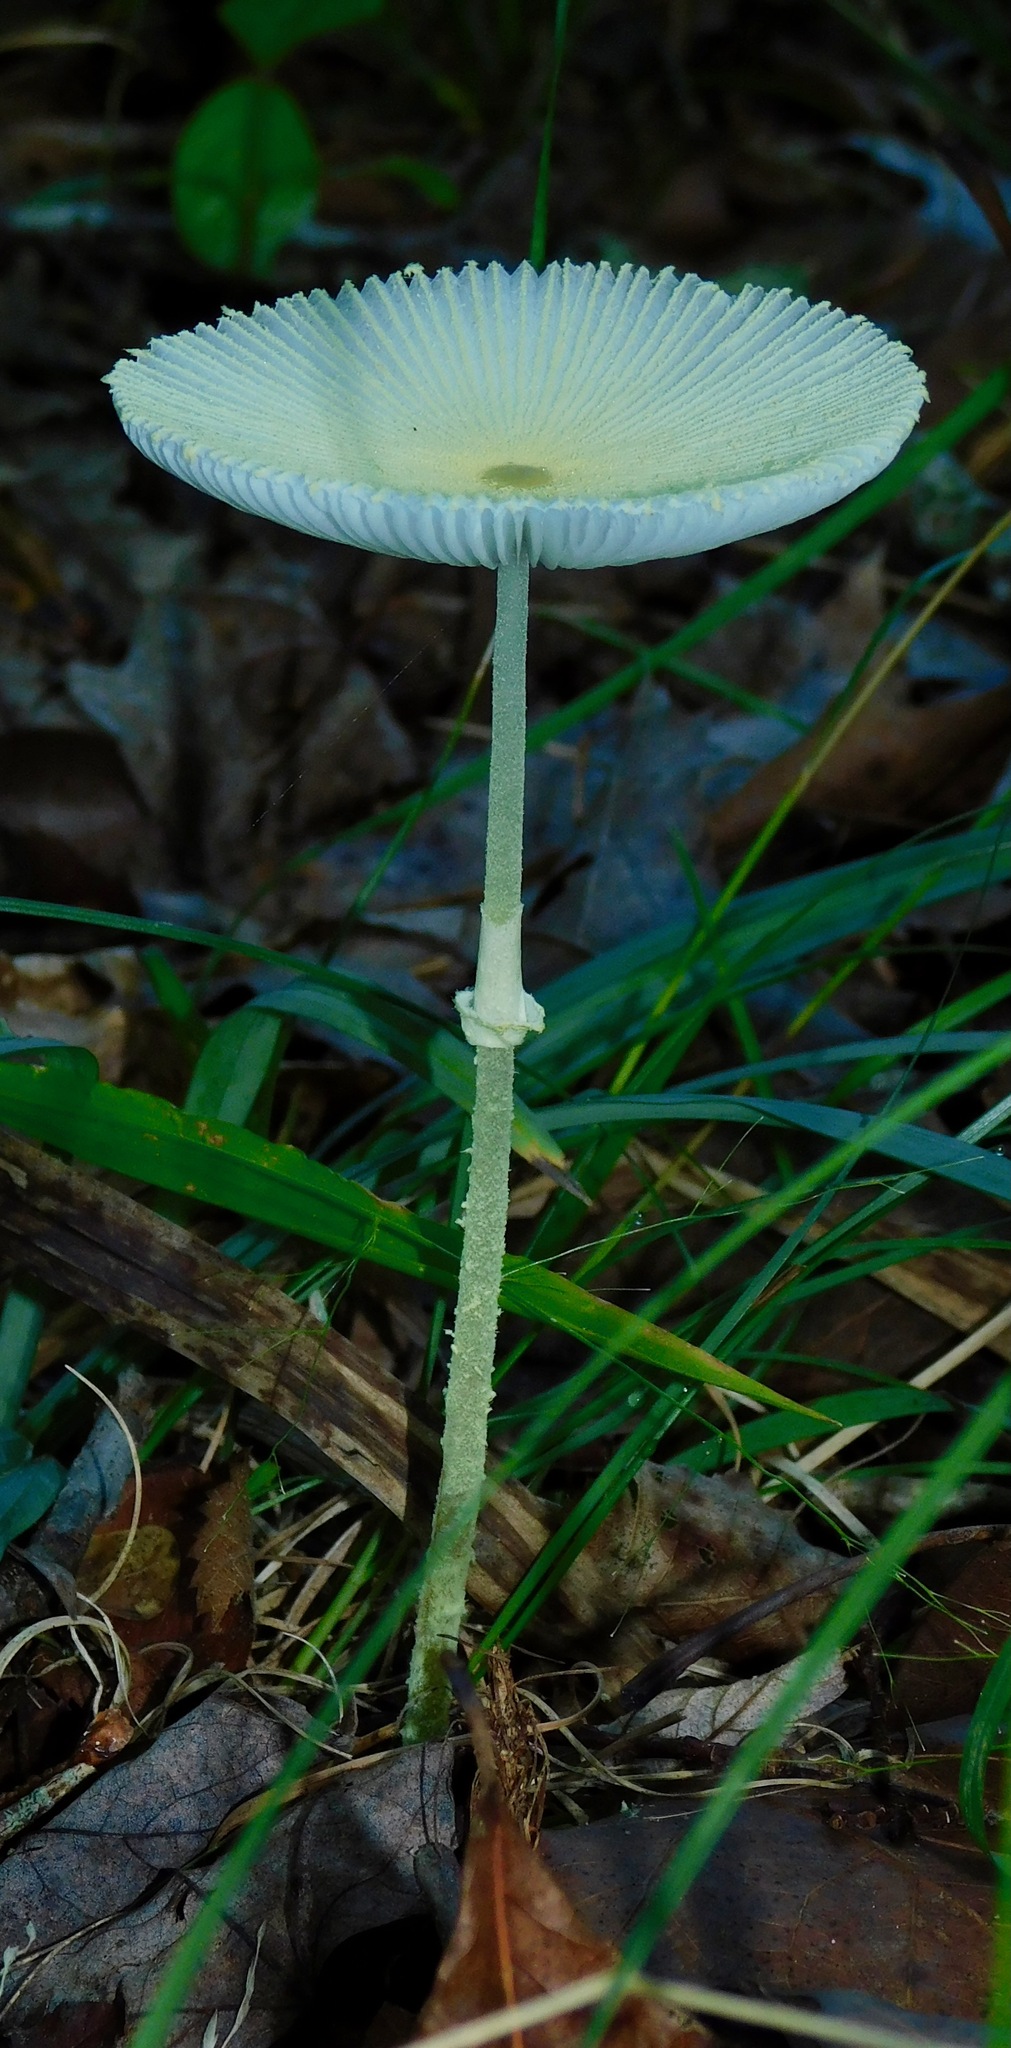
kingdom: Fungi
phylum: Basidiomycota
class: Agaricomycetes
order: Agaricales
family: Agaricaceae
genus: Leucocoprinus
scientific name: Leucocoprinus fragilissimus
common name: Fragile dapperling
